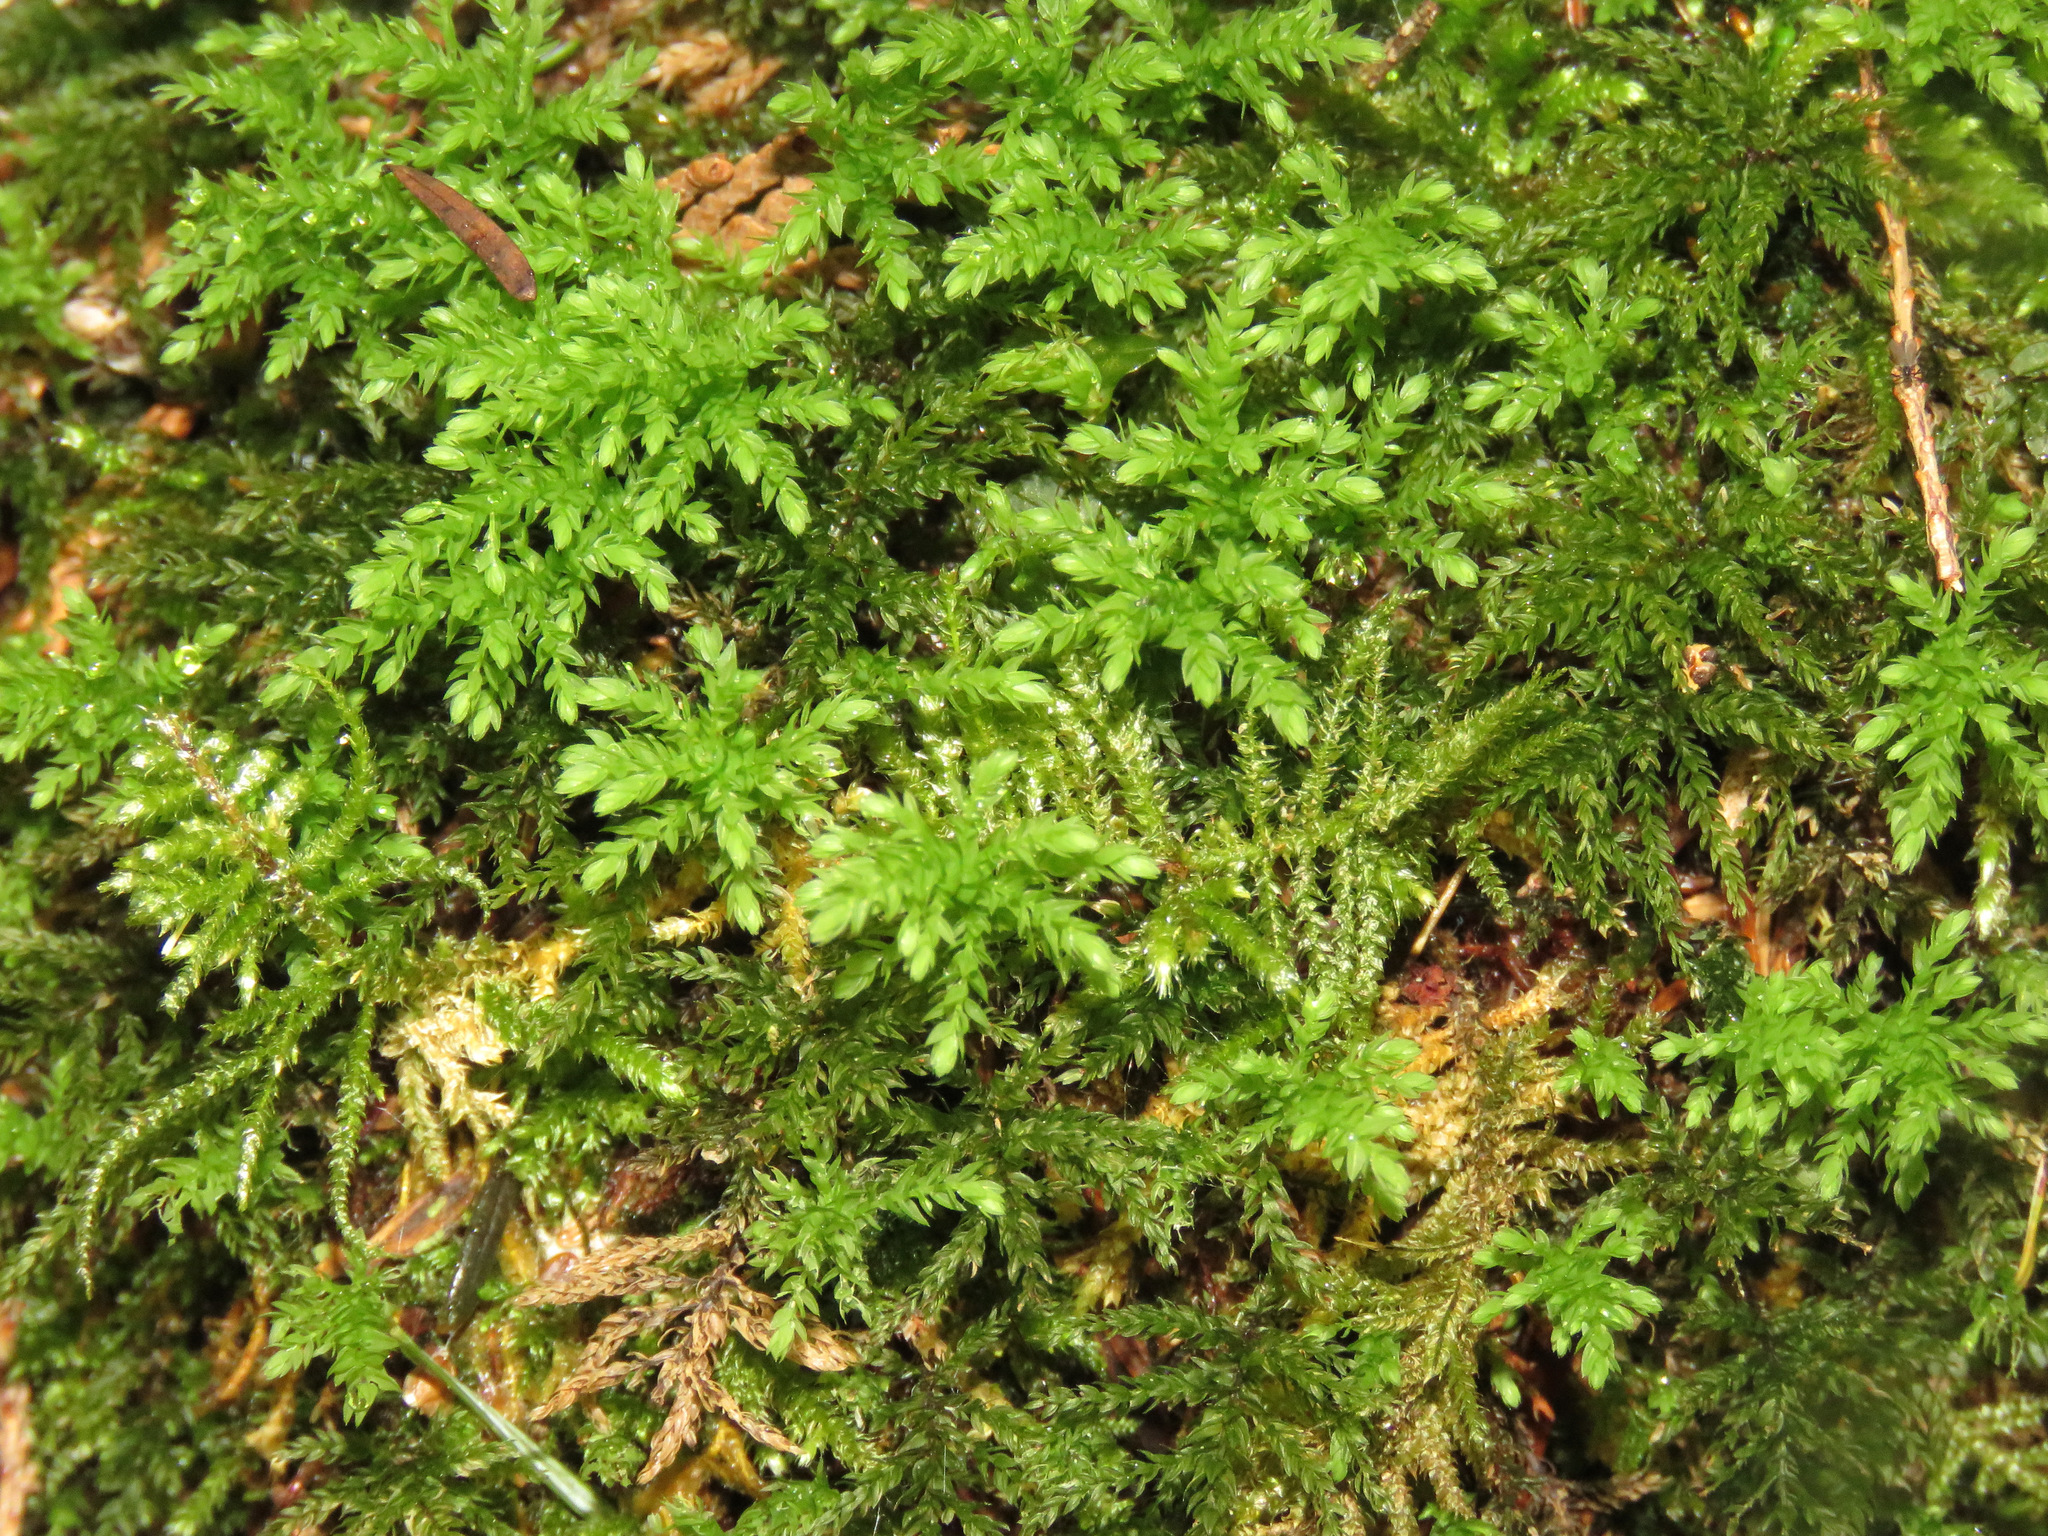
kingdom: Plantae
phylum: Bryophyta
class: Bryopsida
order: Bryales
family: Mniaceae
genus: Leucolepis
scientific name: Leucolepis acanthoneura
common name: Leucolepis umbrella moss
